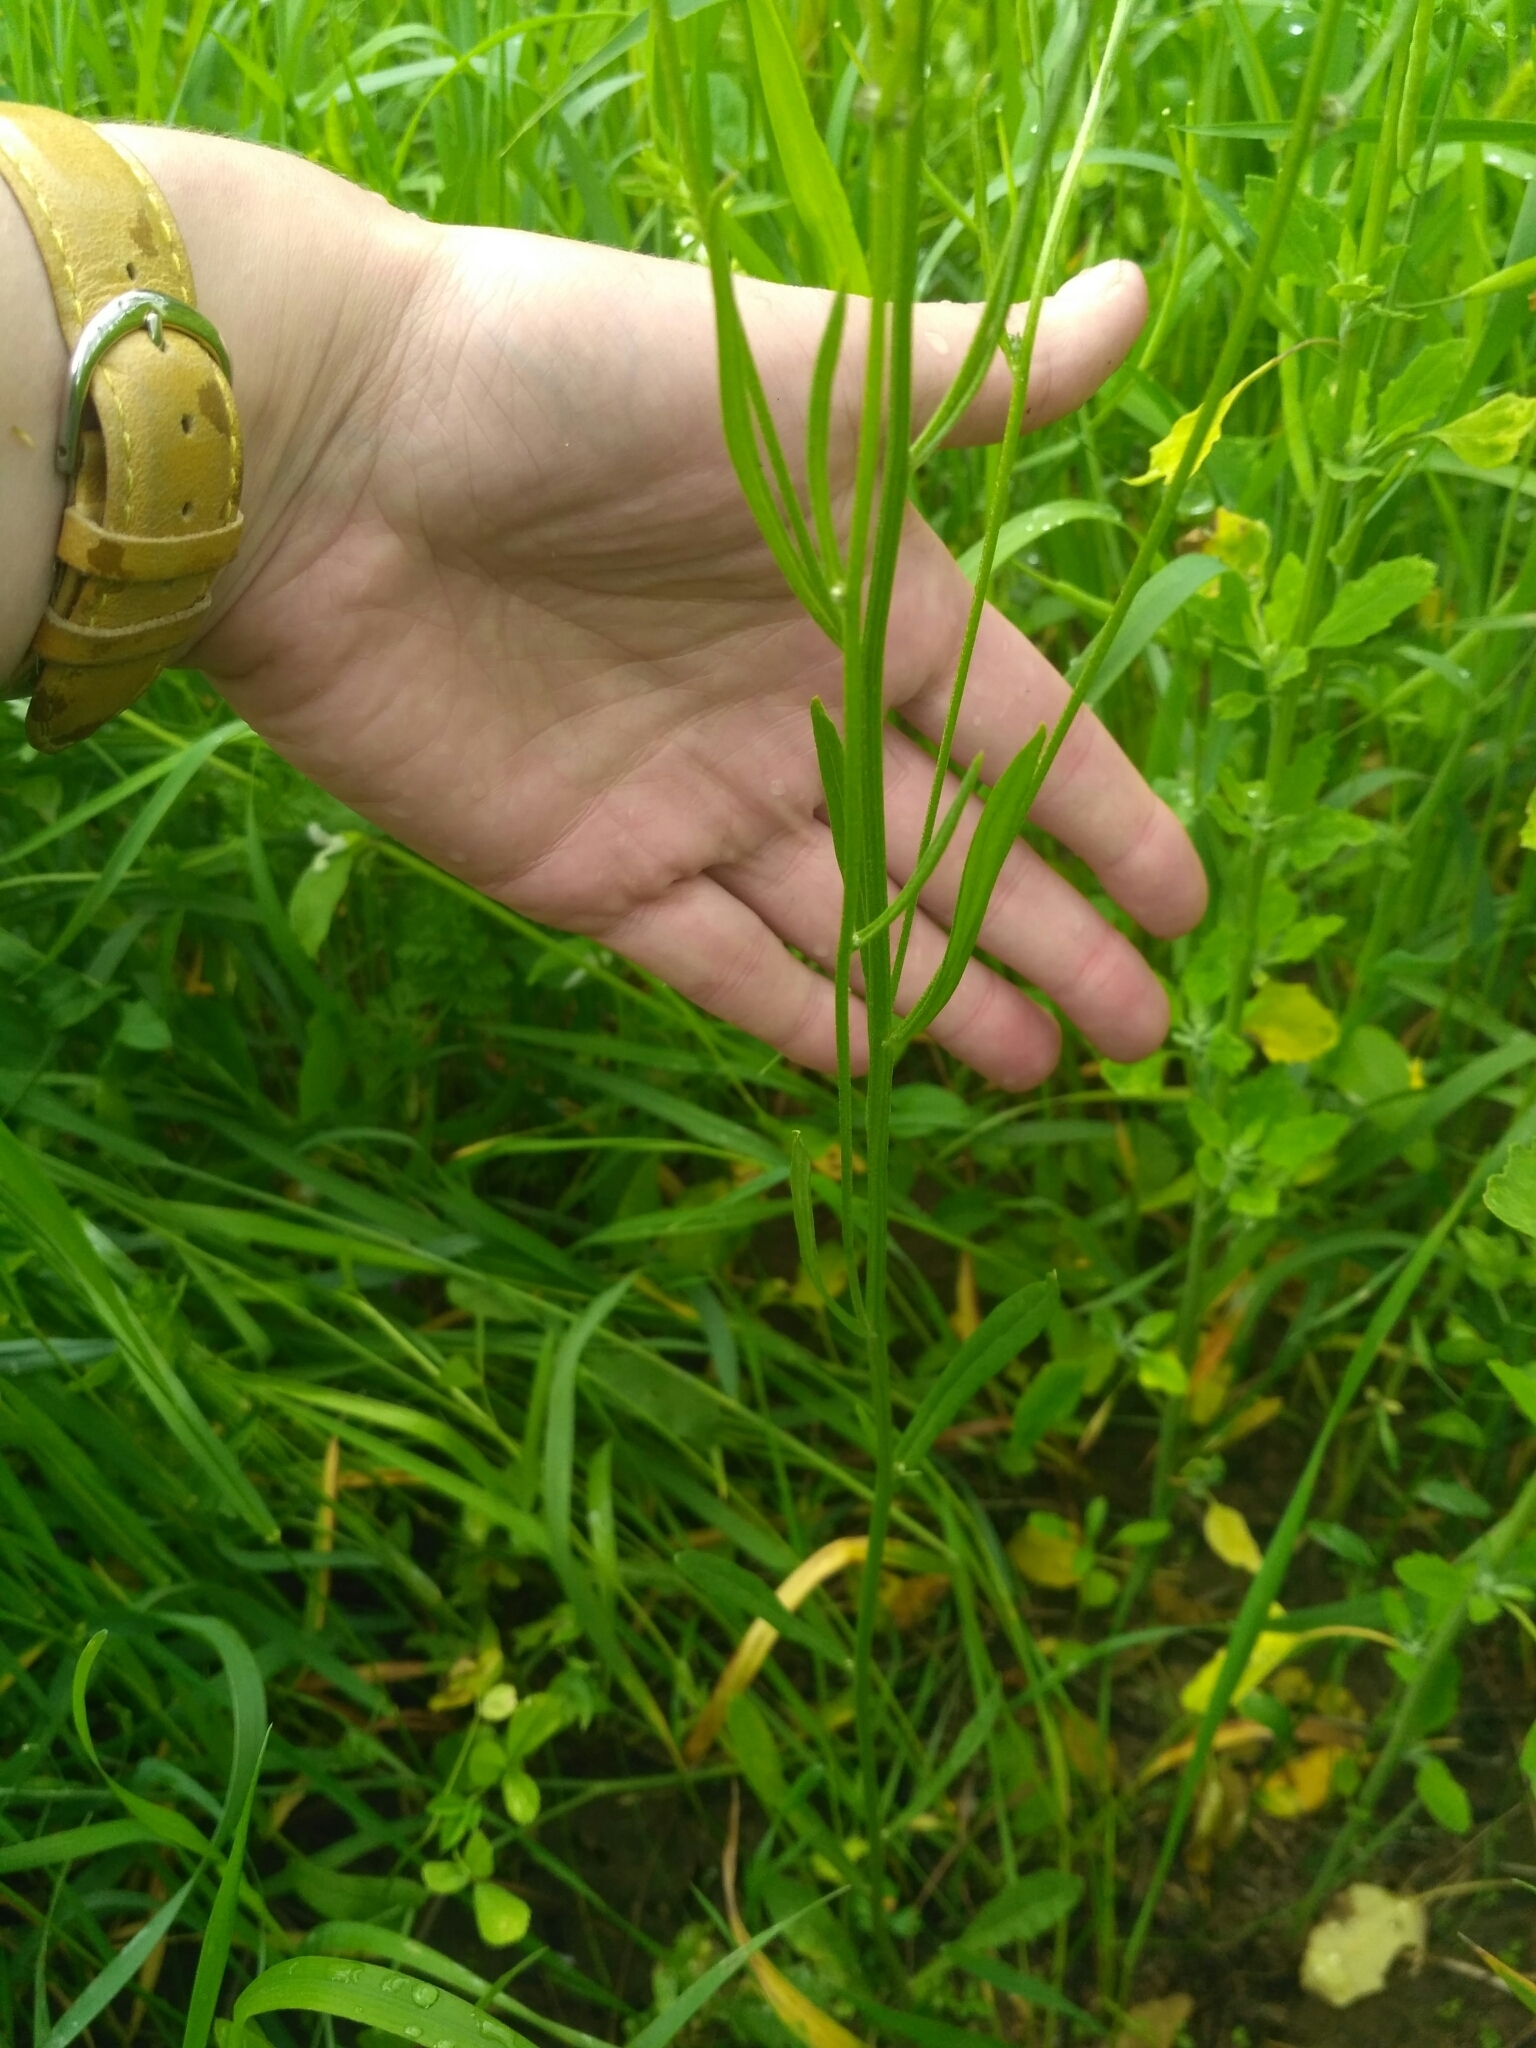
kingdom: Plantae
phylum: Tracheophyta
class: Magnoliopsida
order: Asterales
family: Asteraceae
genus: Crepis
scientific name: Crepis tectorum
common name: Narrow-leaved hawk's-beard
